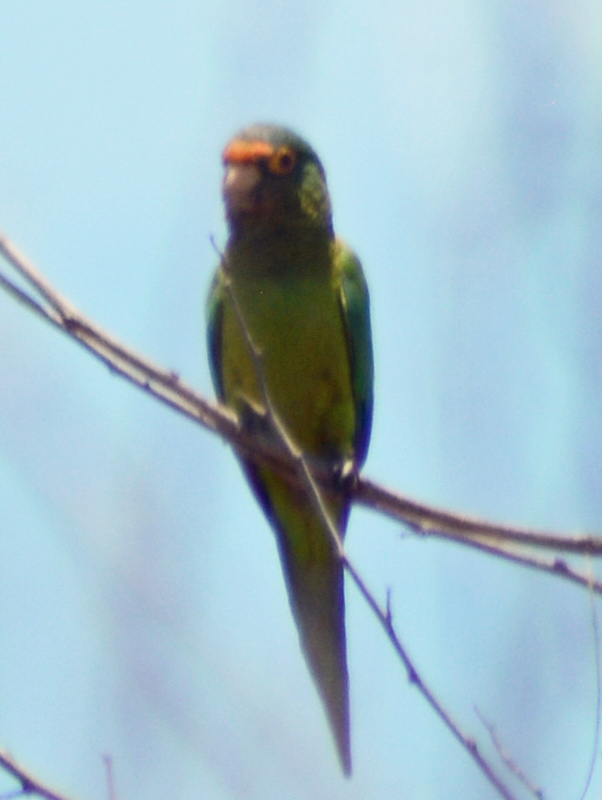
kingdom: Animalia
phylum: Chordata
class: Aves
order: Psittaciformes
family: Psittacidae
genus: Aratinga
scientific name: Aratinga canicularis
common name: Orange-fronted parakeet
